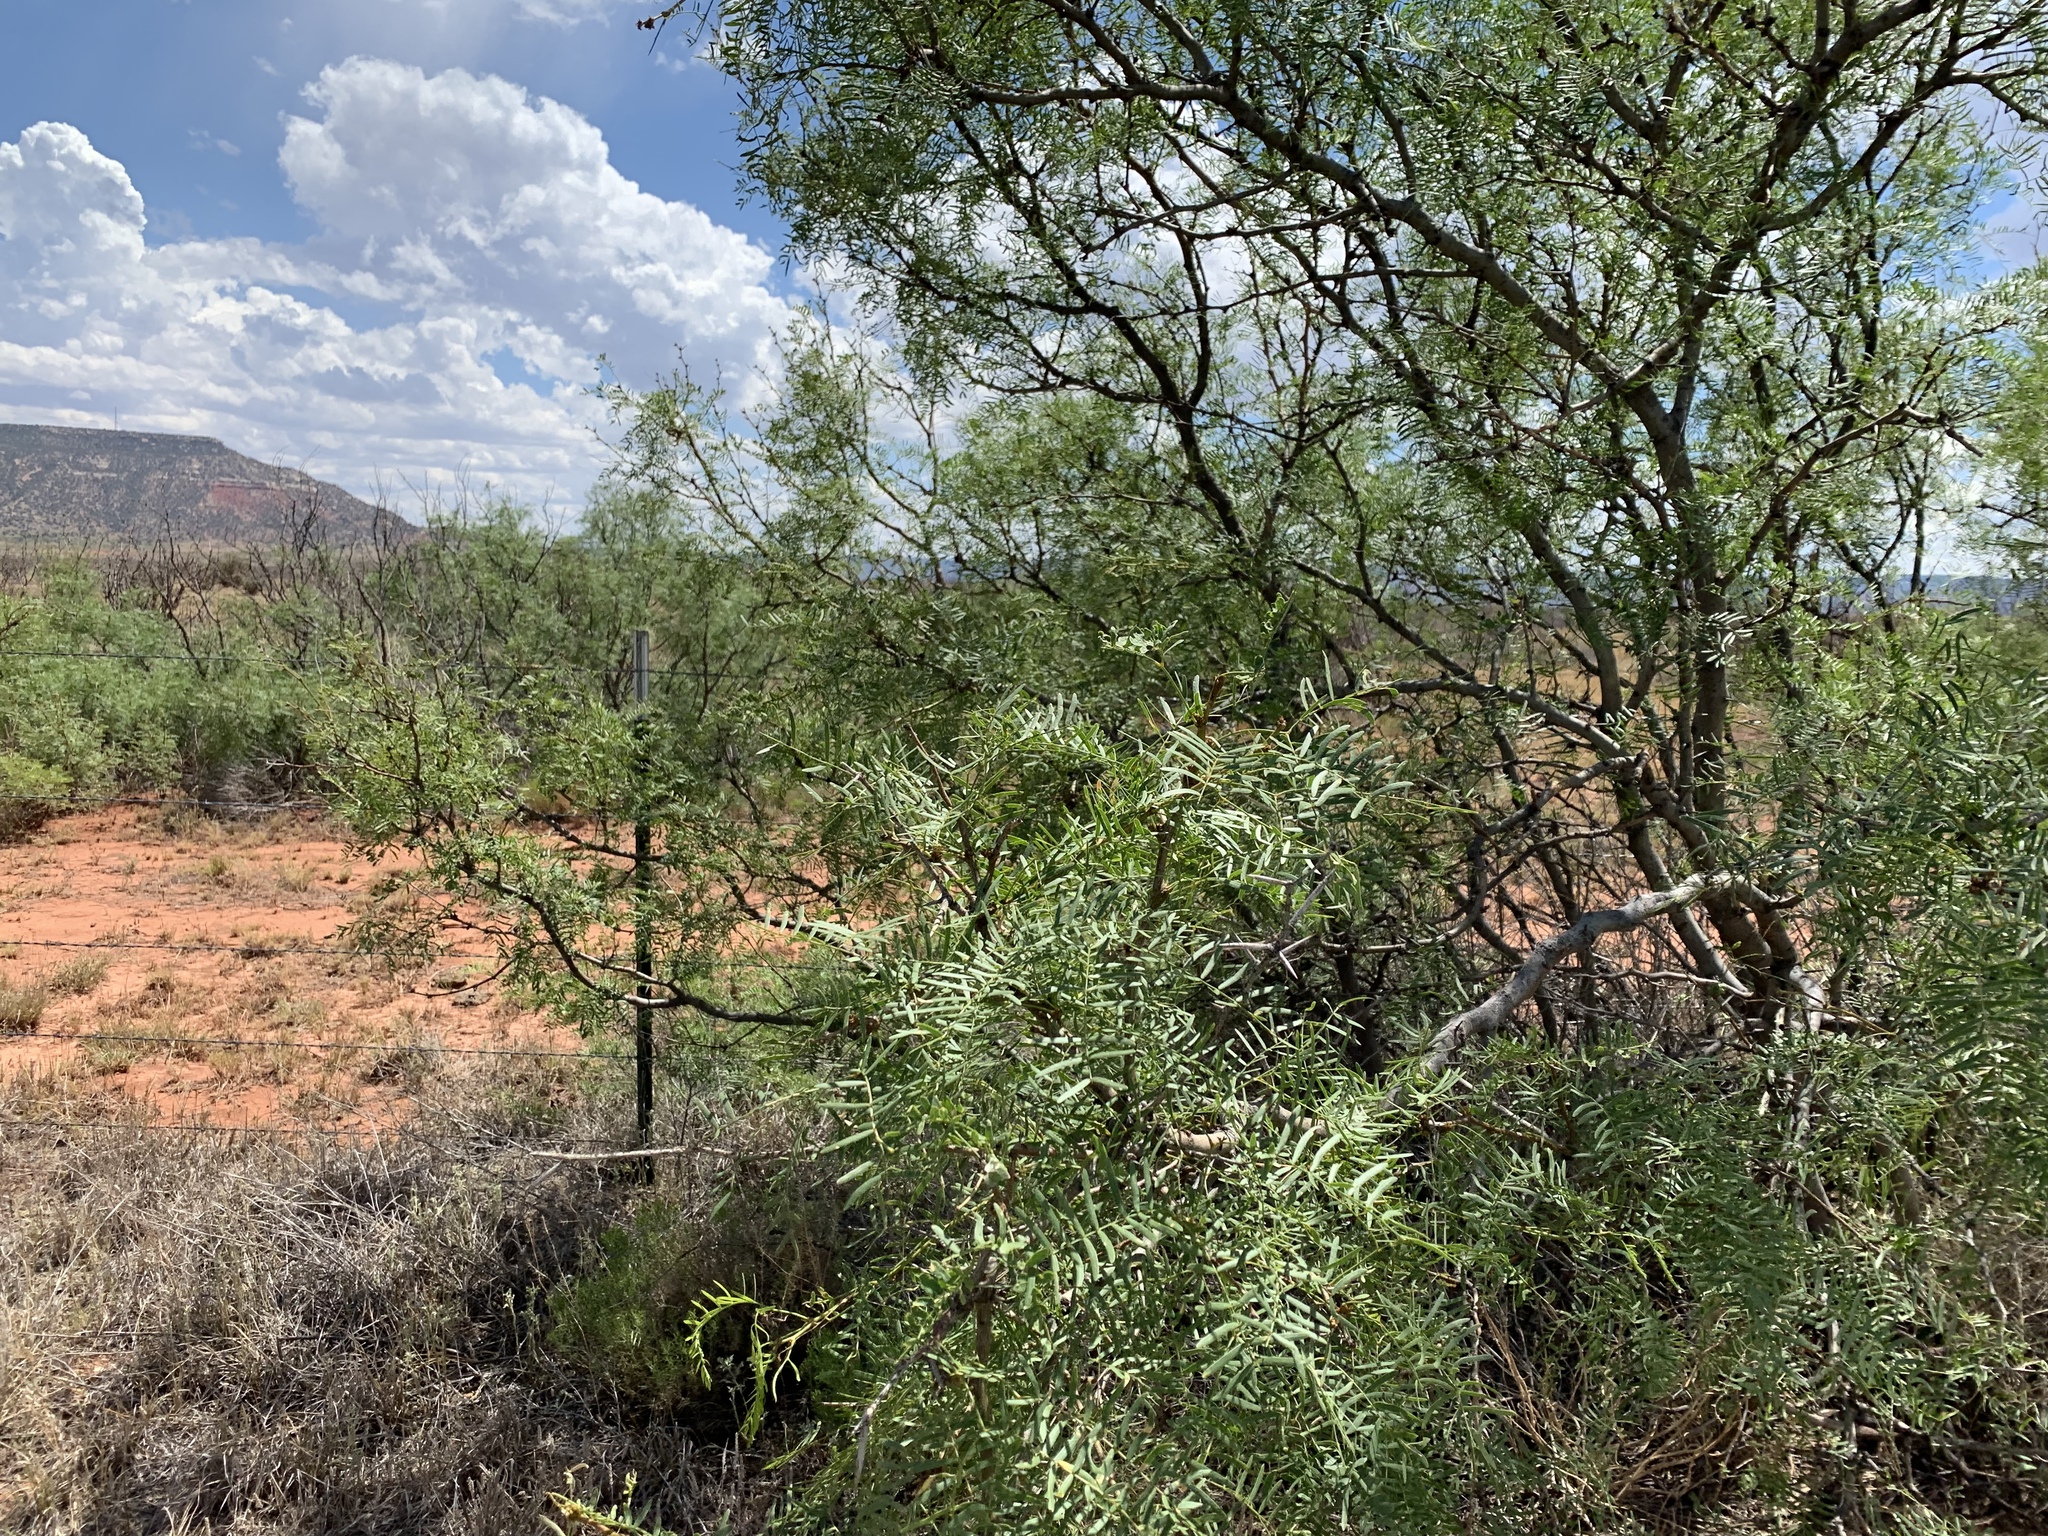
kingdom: Plantae
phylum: Tracheophyta
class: Magnoliopsida
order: Fabales
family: Fabaceae
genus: Prosopis
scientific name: Prosopis glandulosa
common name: Honey mesquite
